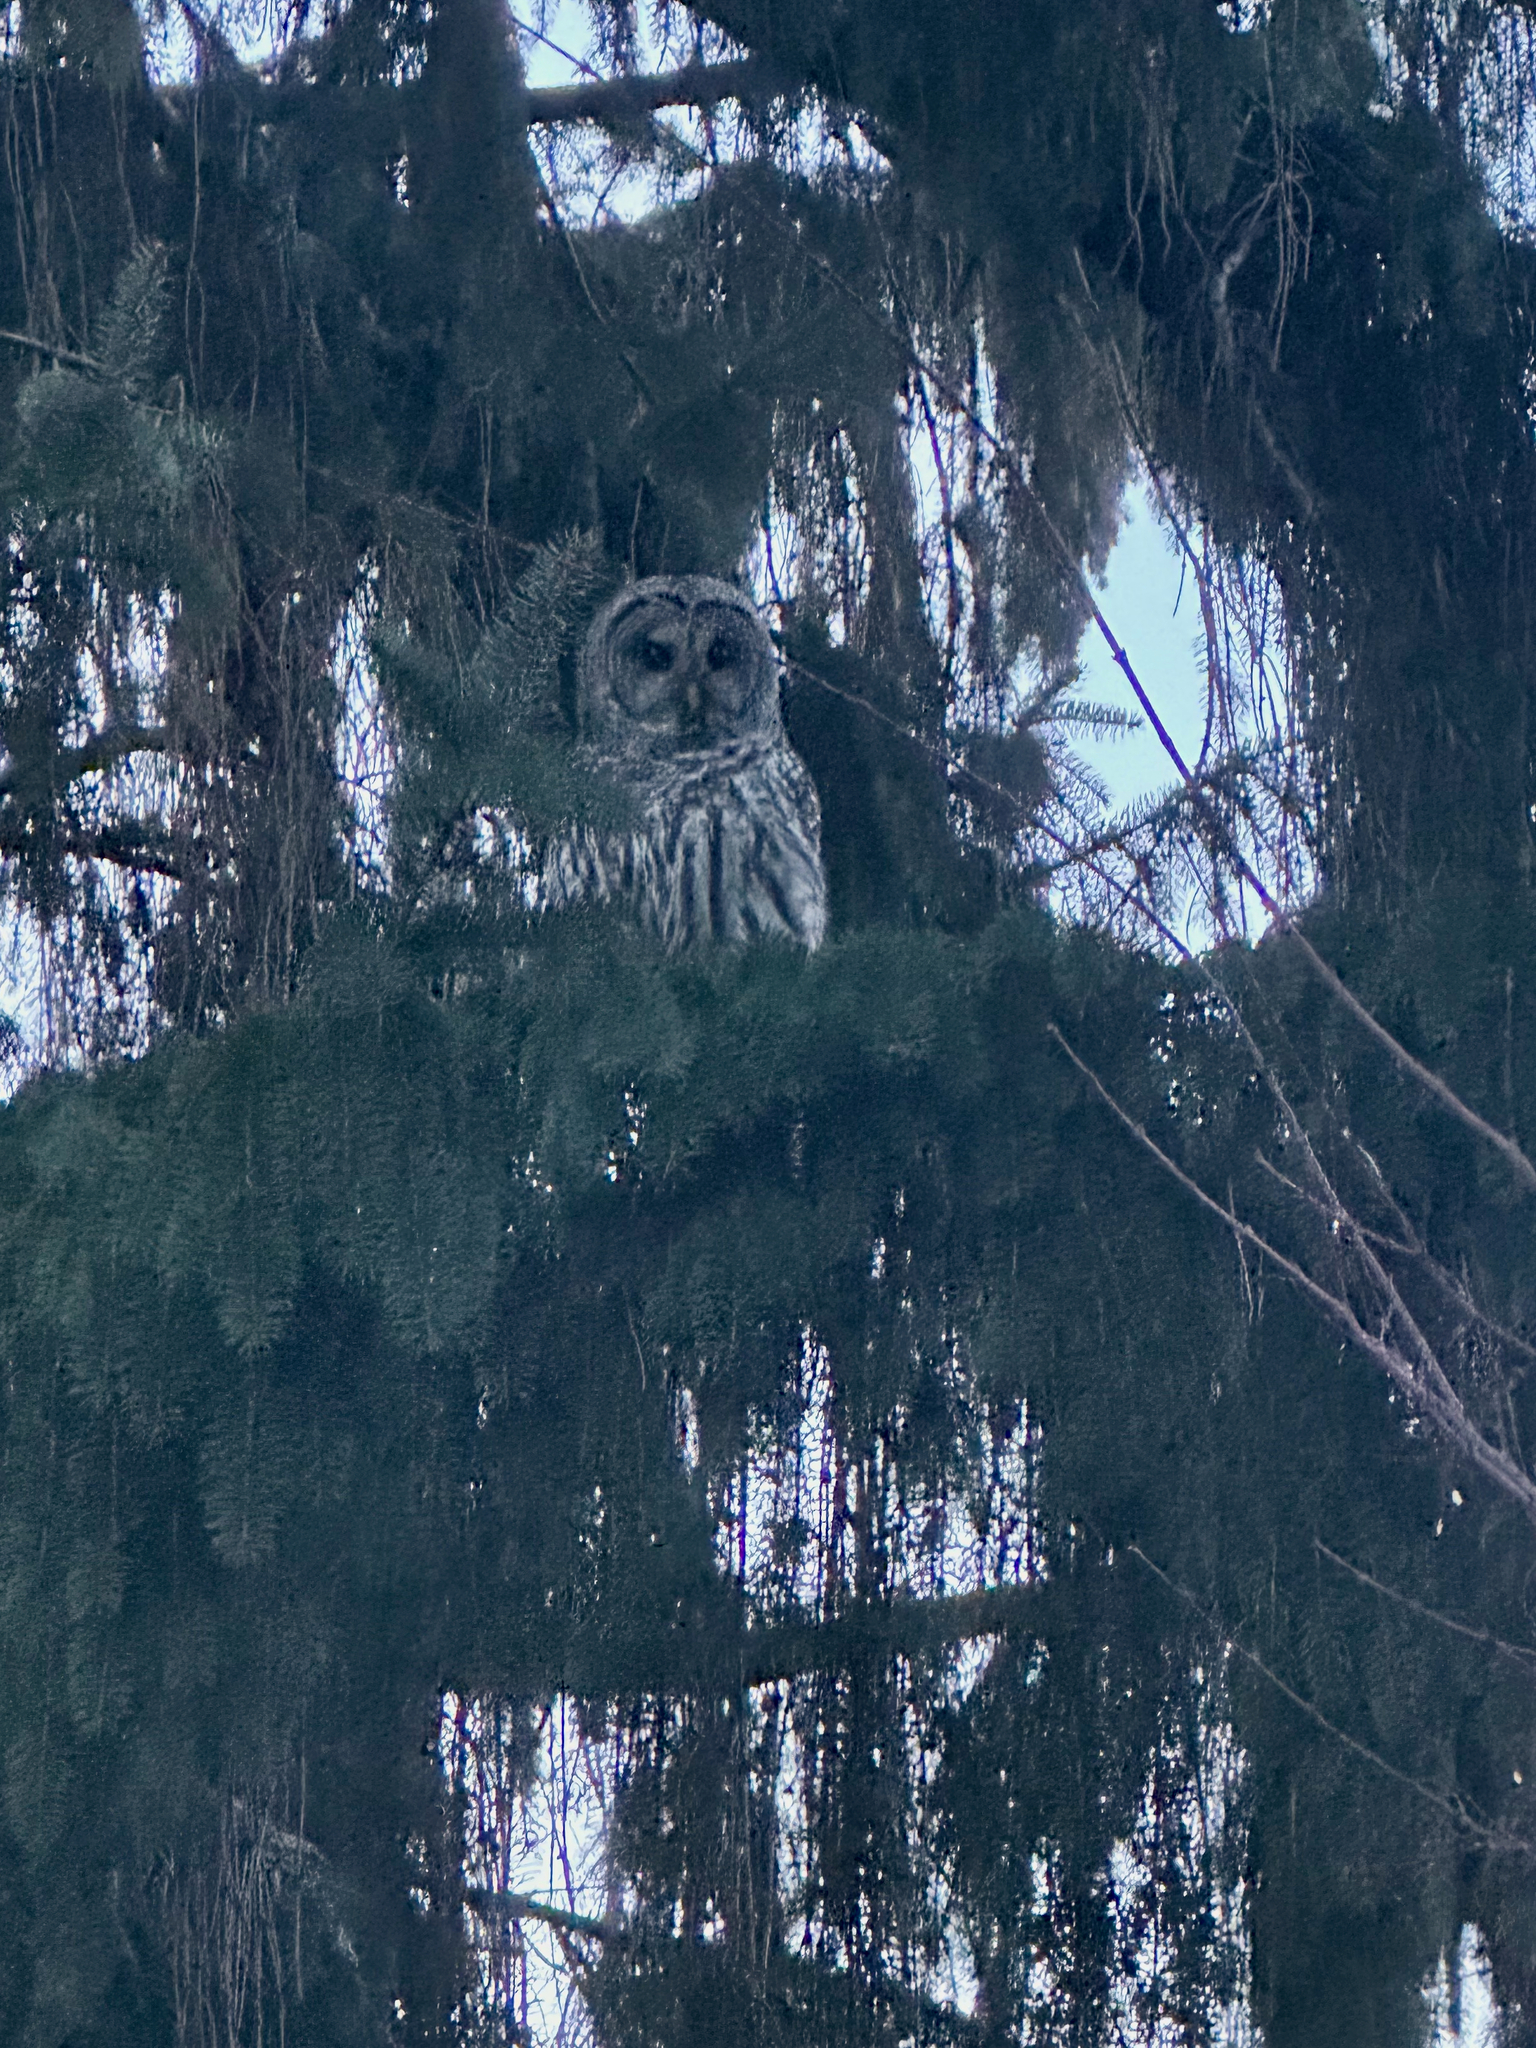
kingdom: Animalia
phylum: Chordata
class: Aves
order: Strigiformes
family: Strigidae
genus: Strix
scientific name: Strix varia
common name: Barred owl
